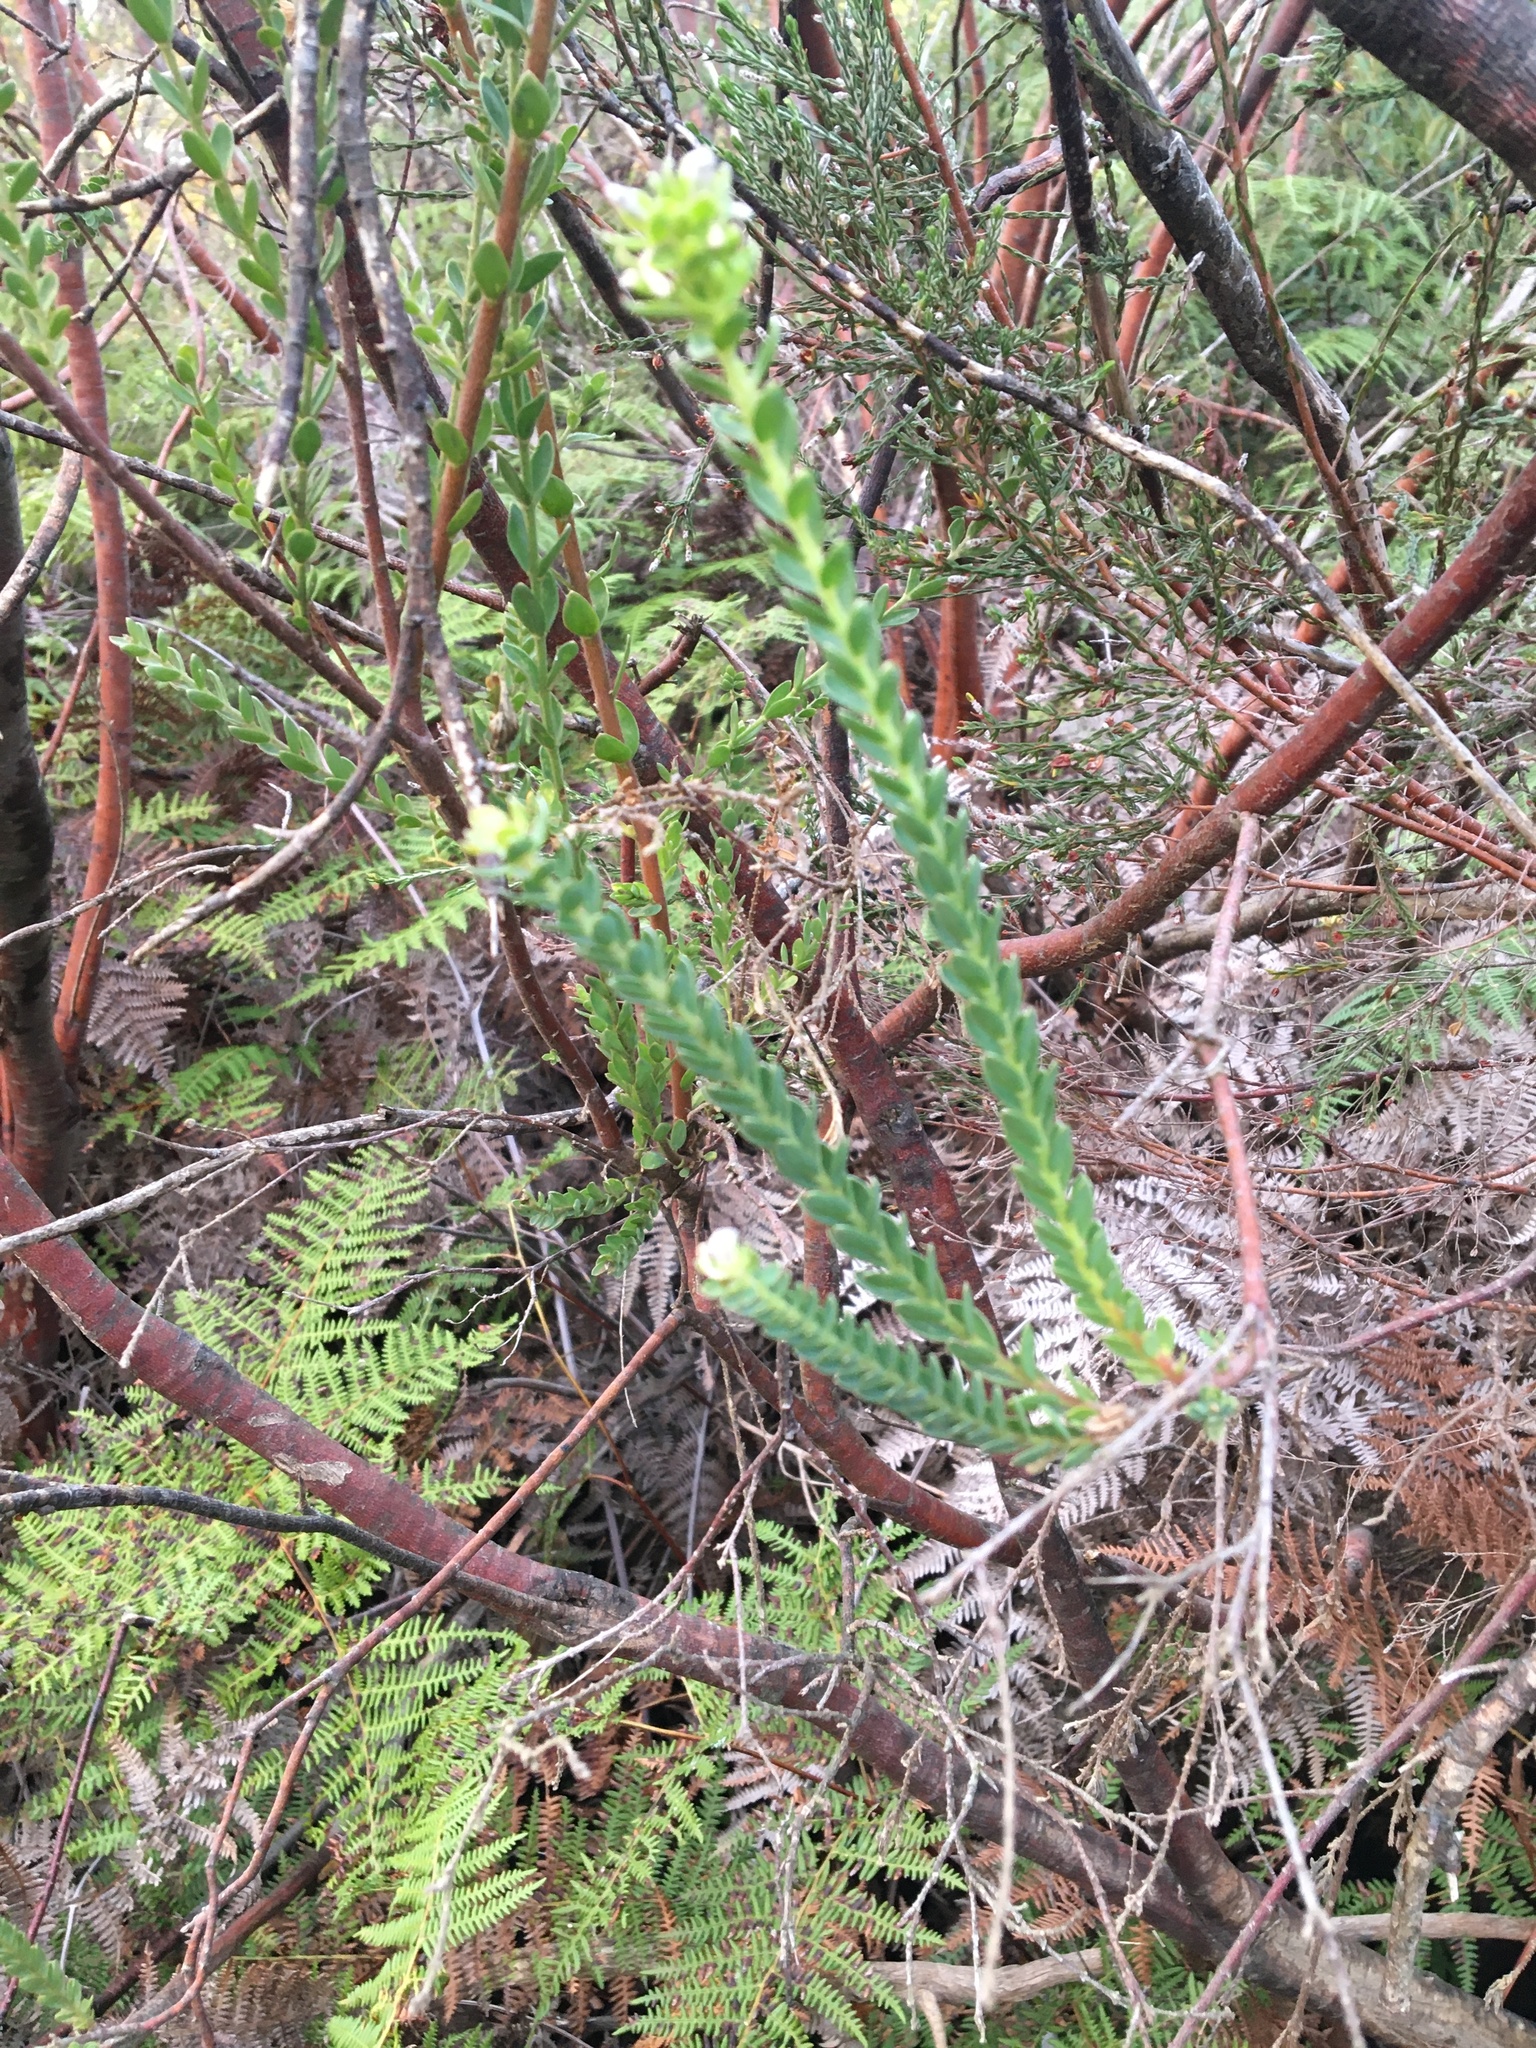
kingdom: Plantae
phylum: Tracheophyta
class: Magnoliopsida
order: Malvales
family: Thymelaeaceae
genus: Gnidia
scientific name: Gnidia sericea
